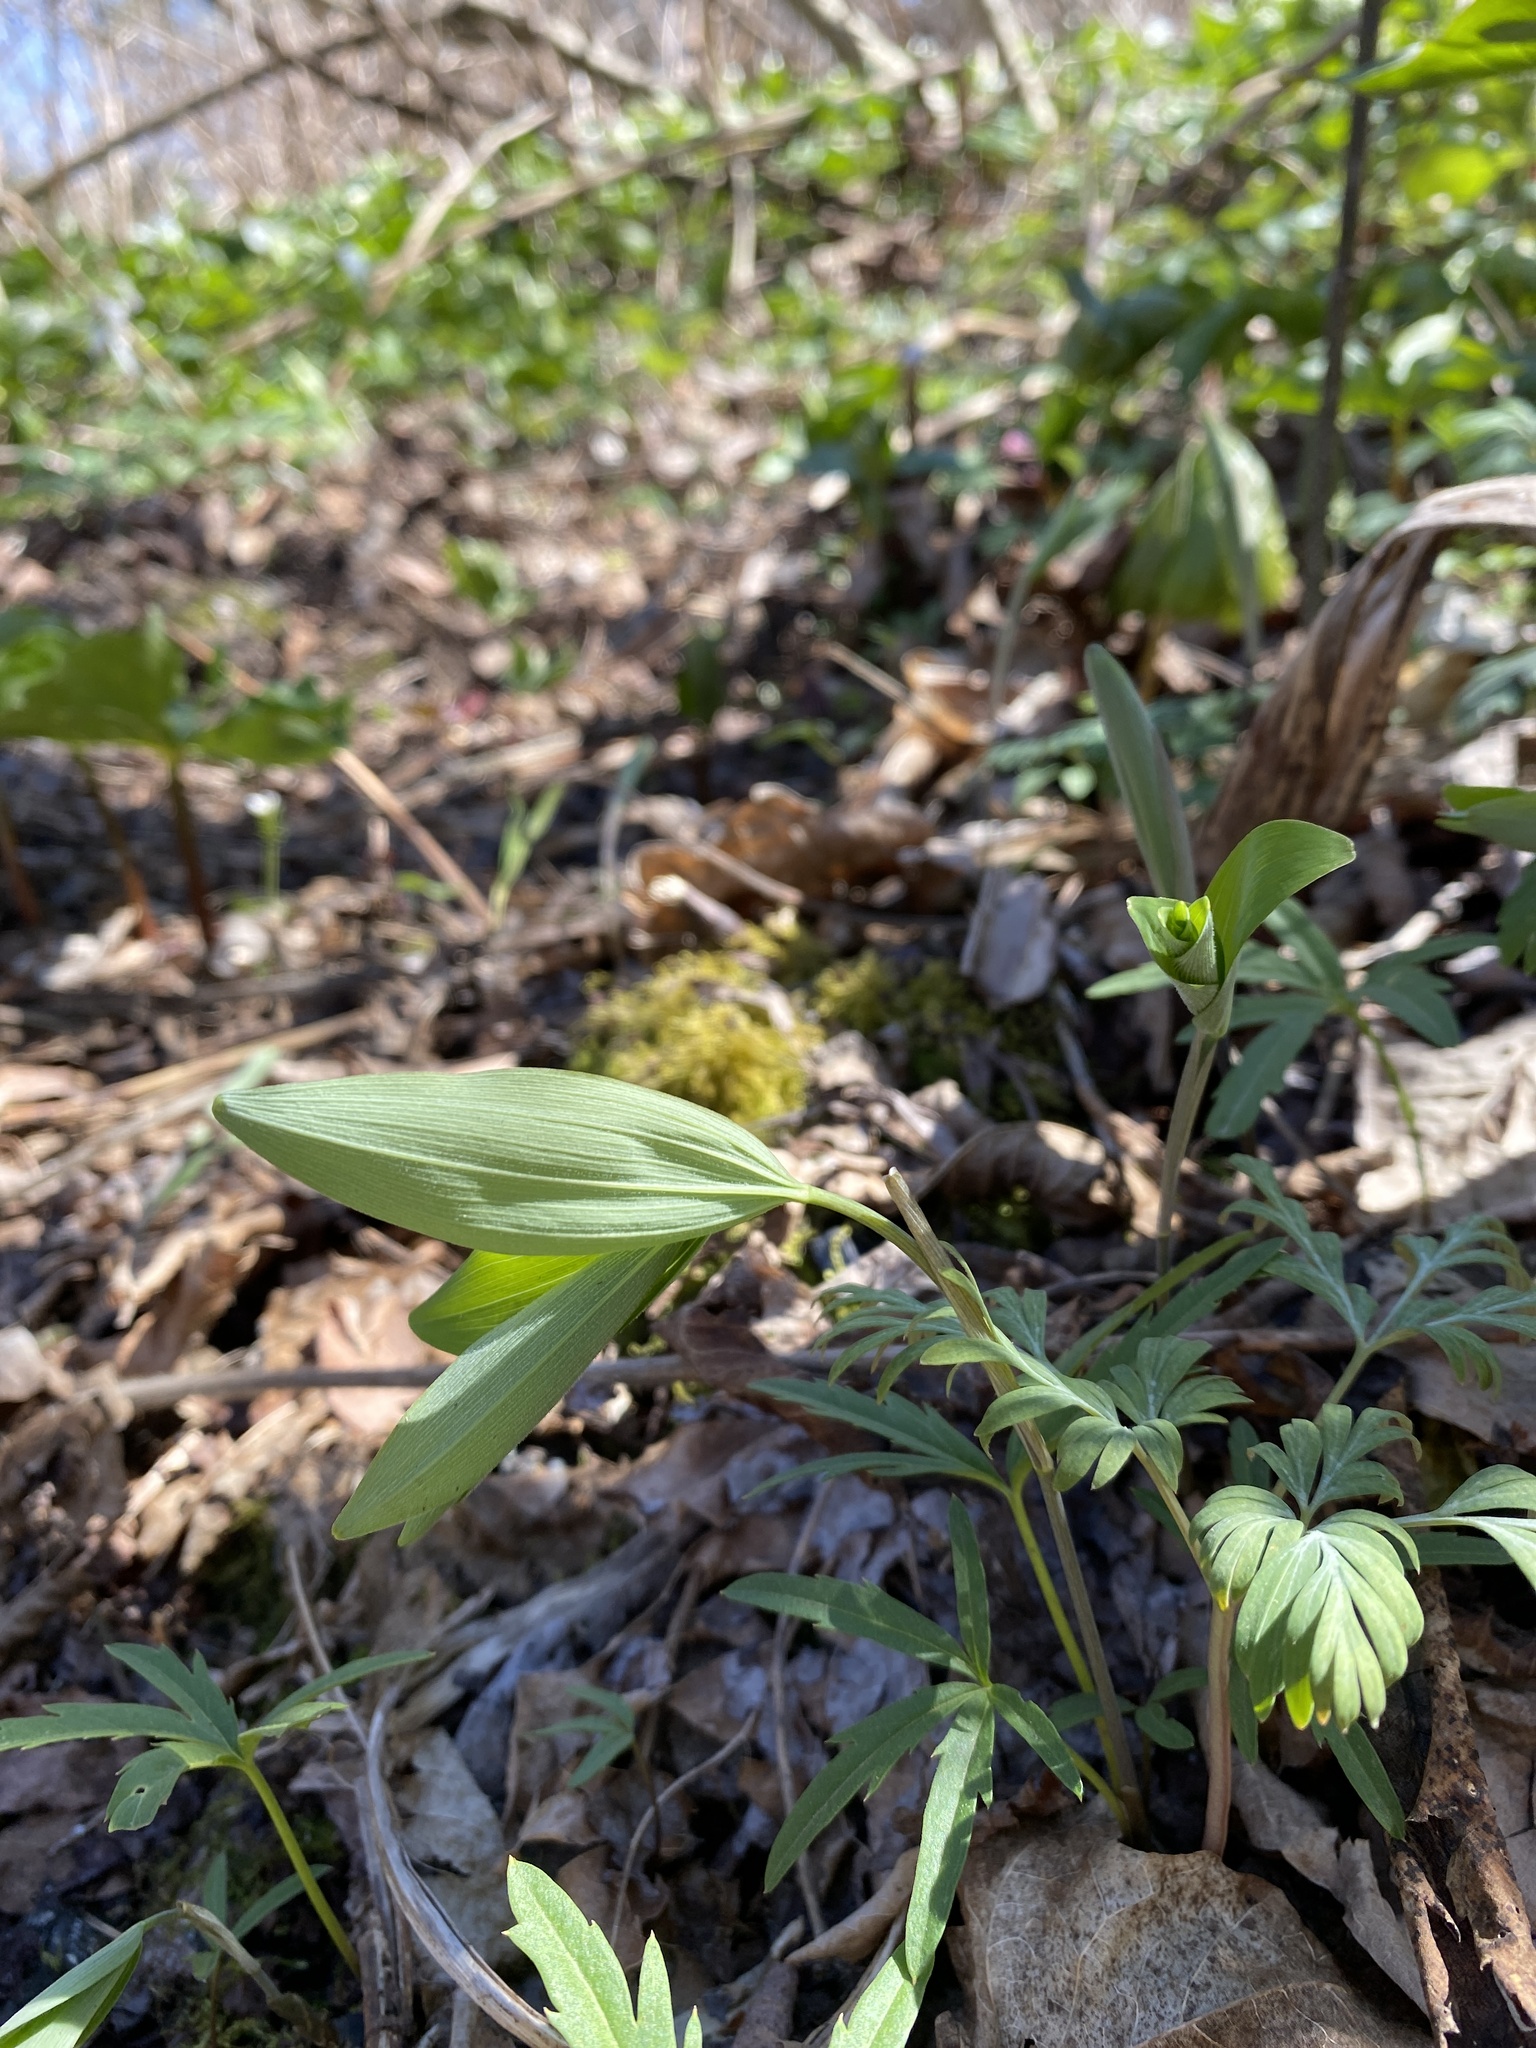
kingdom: Plantae
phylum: Tracheophyta
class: Liliopsida
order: Asparagales
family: Asparagaceae
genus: Polygonatum
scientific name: Polygonatum pubescens
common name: Downy solomon's seal
